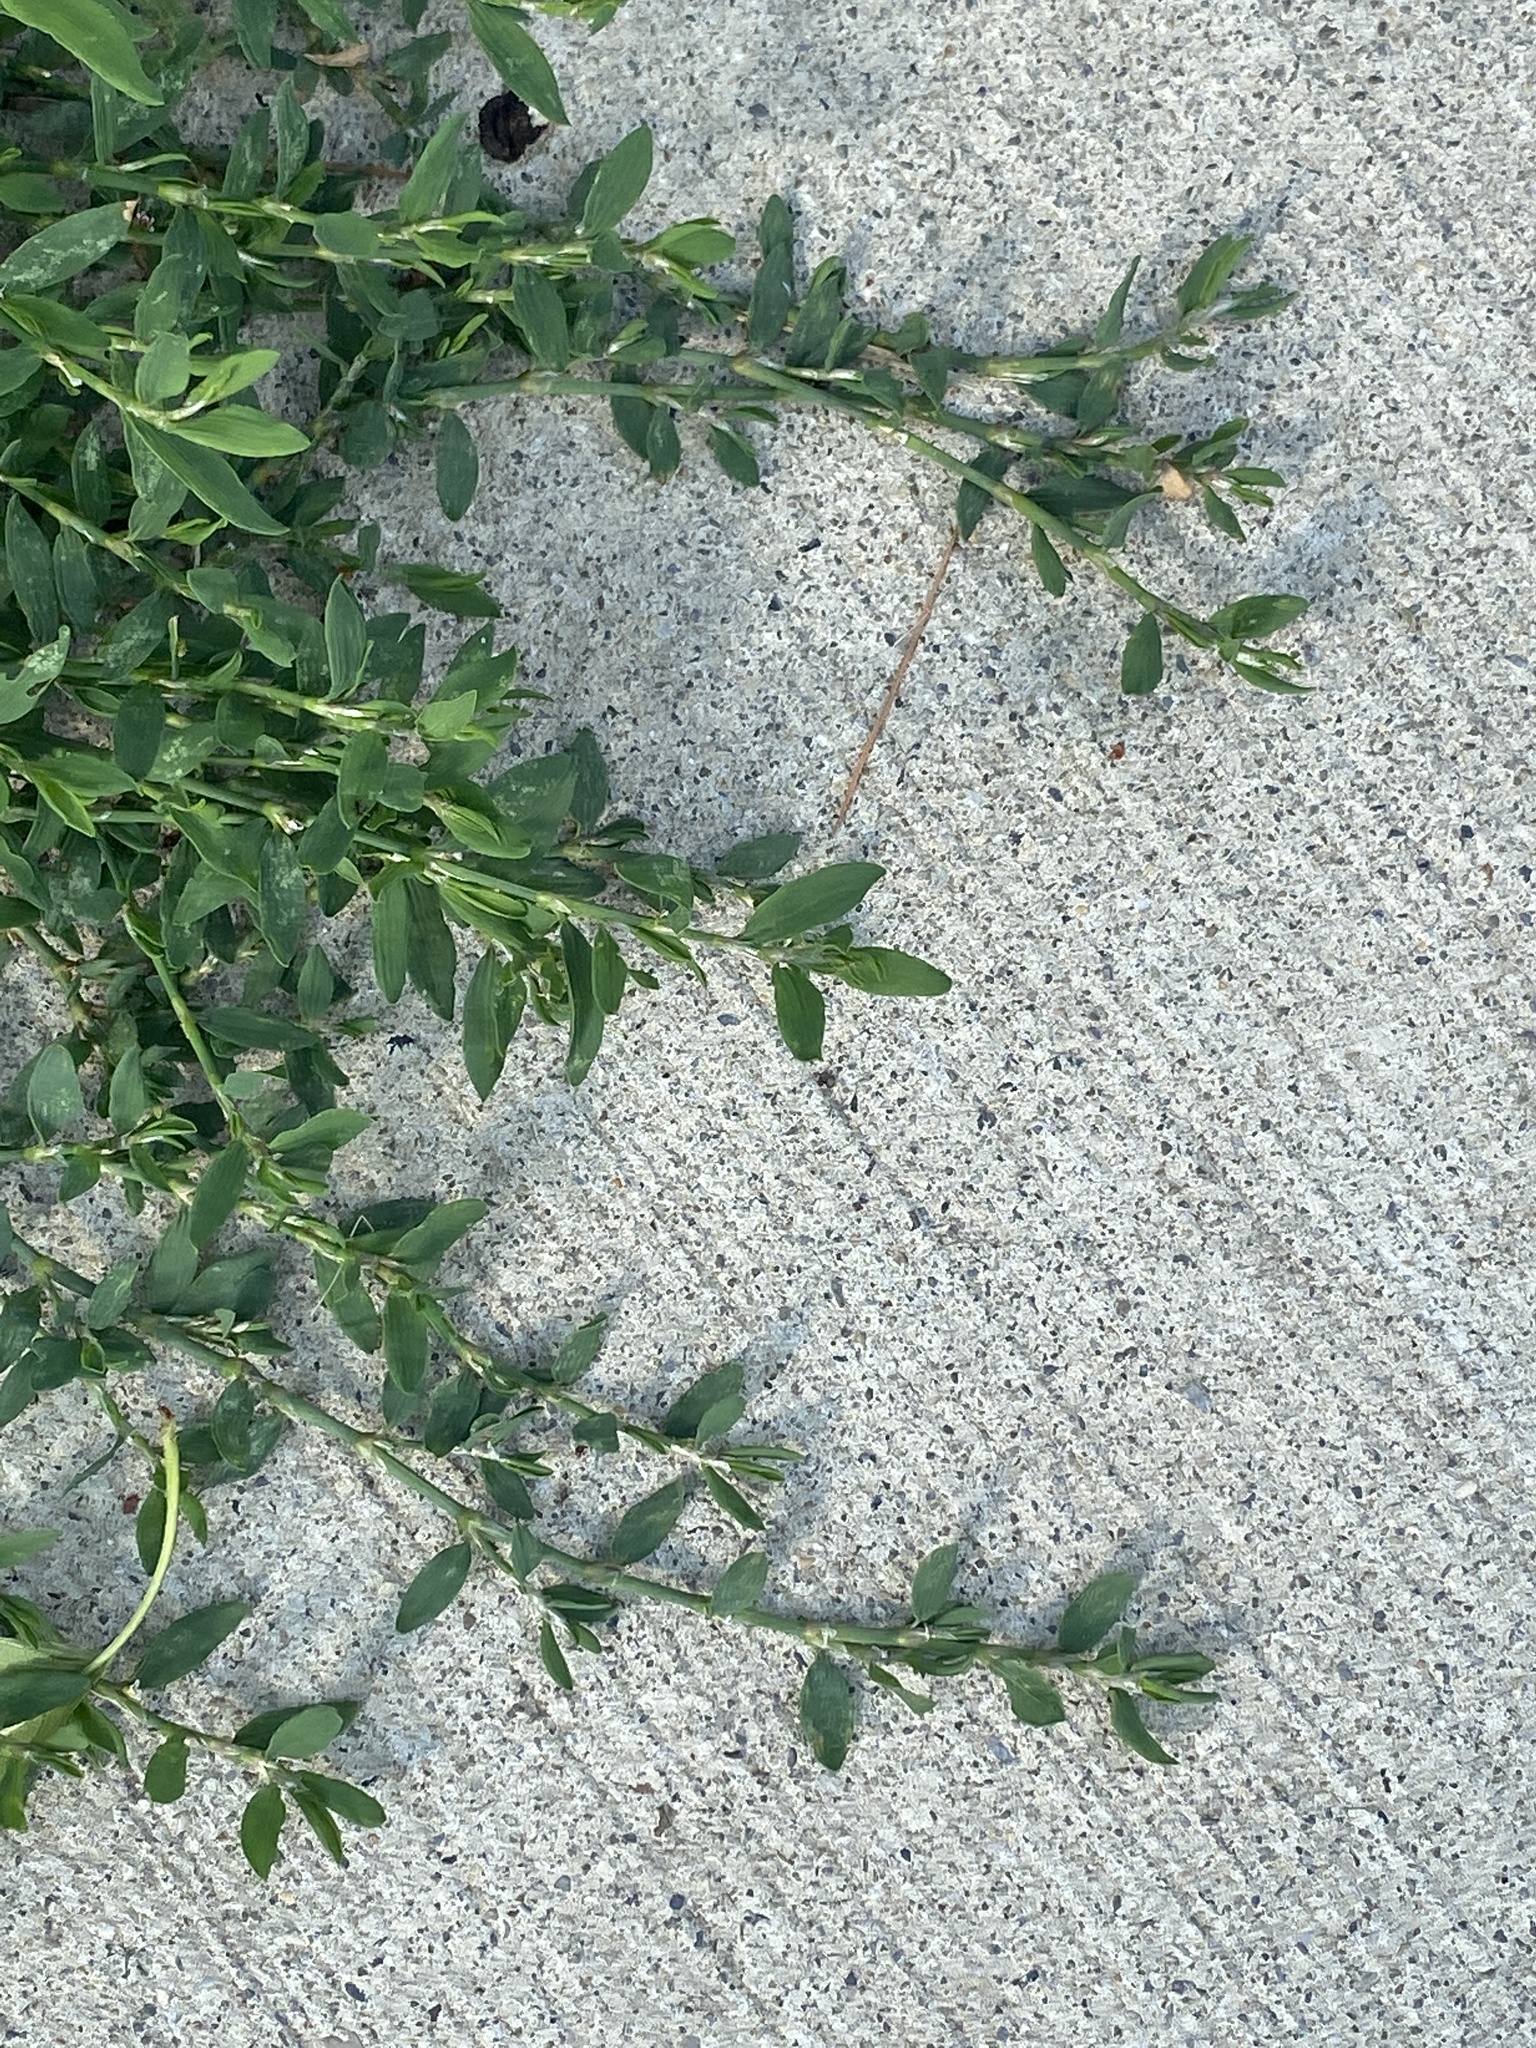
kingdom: Plantae
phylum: Tracheophyta
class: Magnoliopsida
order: Caryophyllales
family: Polygonaceae
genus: Polygonum
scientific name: Polygonum aviculare
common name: Prostrate knotweed
